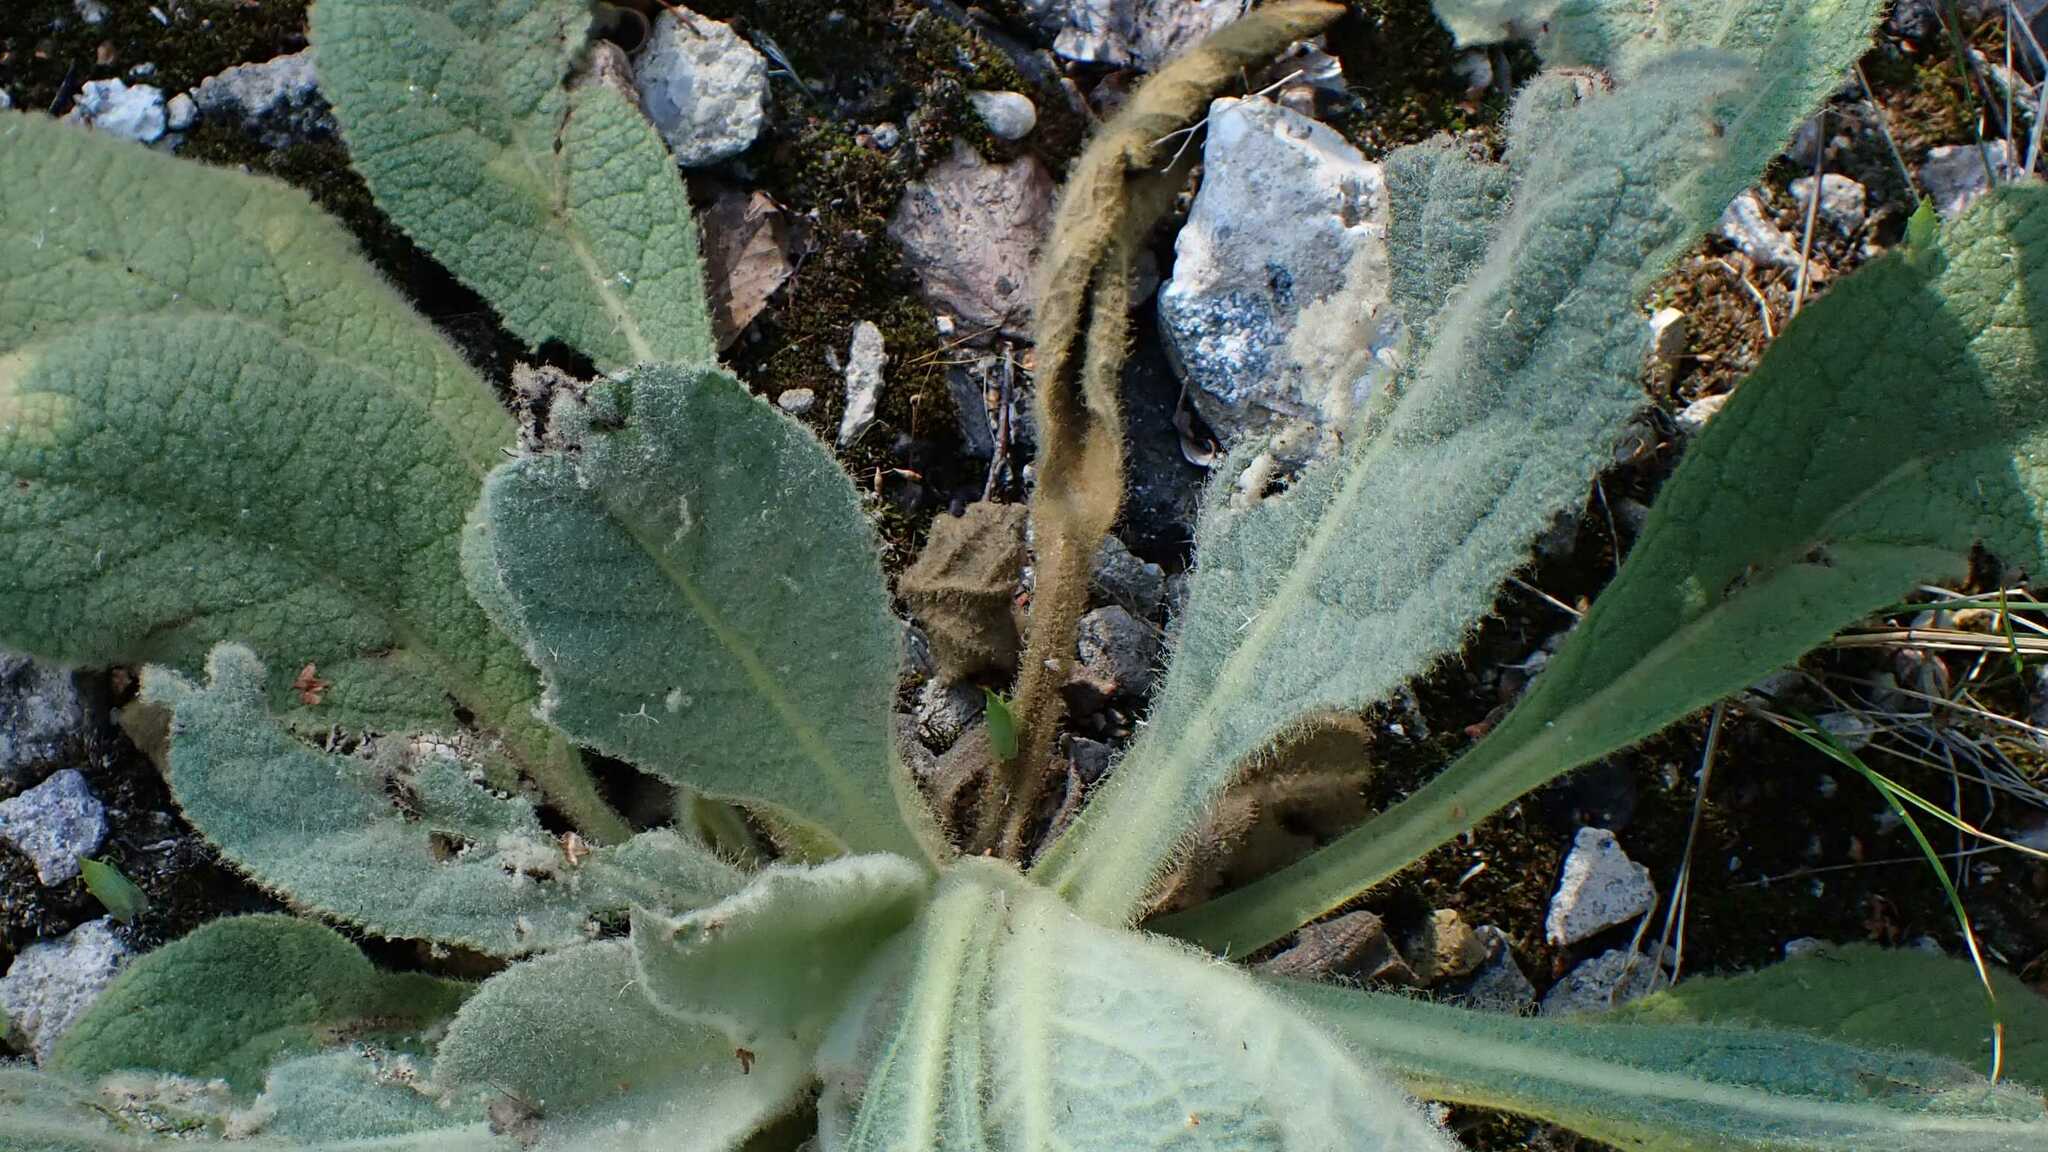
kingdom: Animalia
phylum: Arthropoda
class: Insecta
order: Hemiptera
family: Dictyopharidae
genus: Dictyophara
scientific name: Dictyophara europaea
